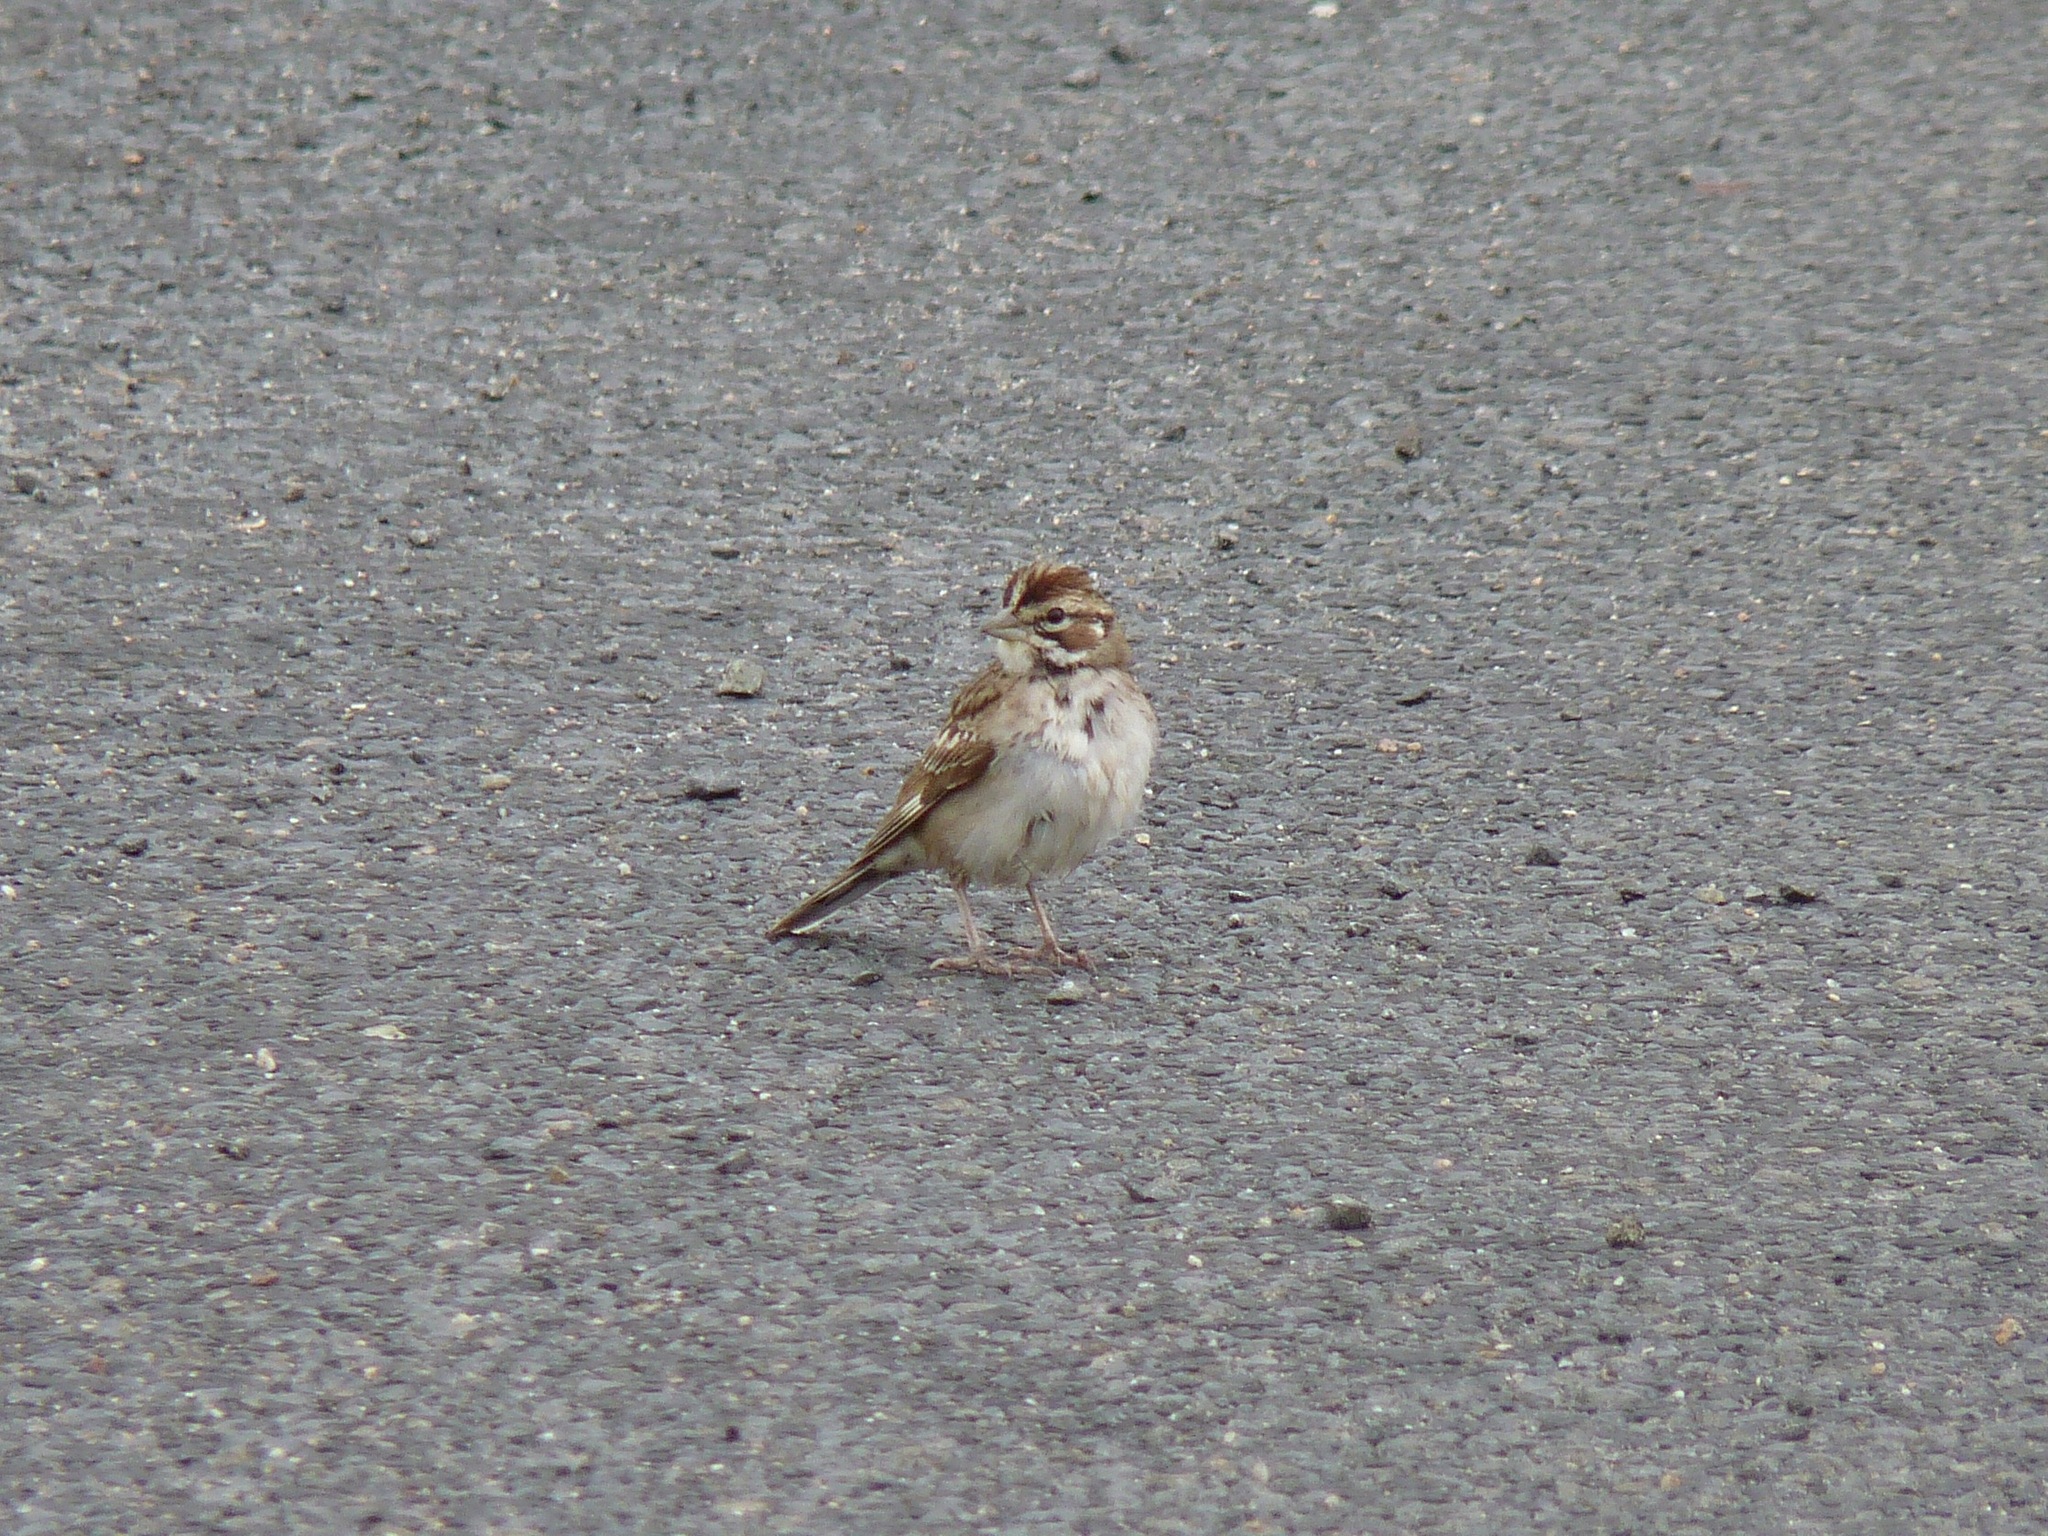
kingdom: Animalia
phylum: Chordata
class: Aves
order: Passeriformes
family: Passerellidae
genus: Chondestes
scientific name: Chondestes grammacus
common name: Lark sparrow
